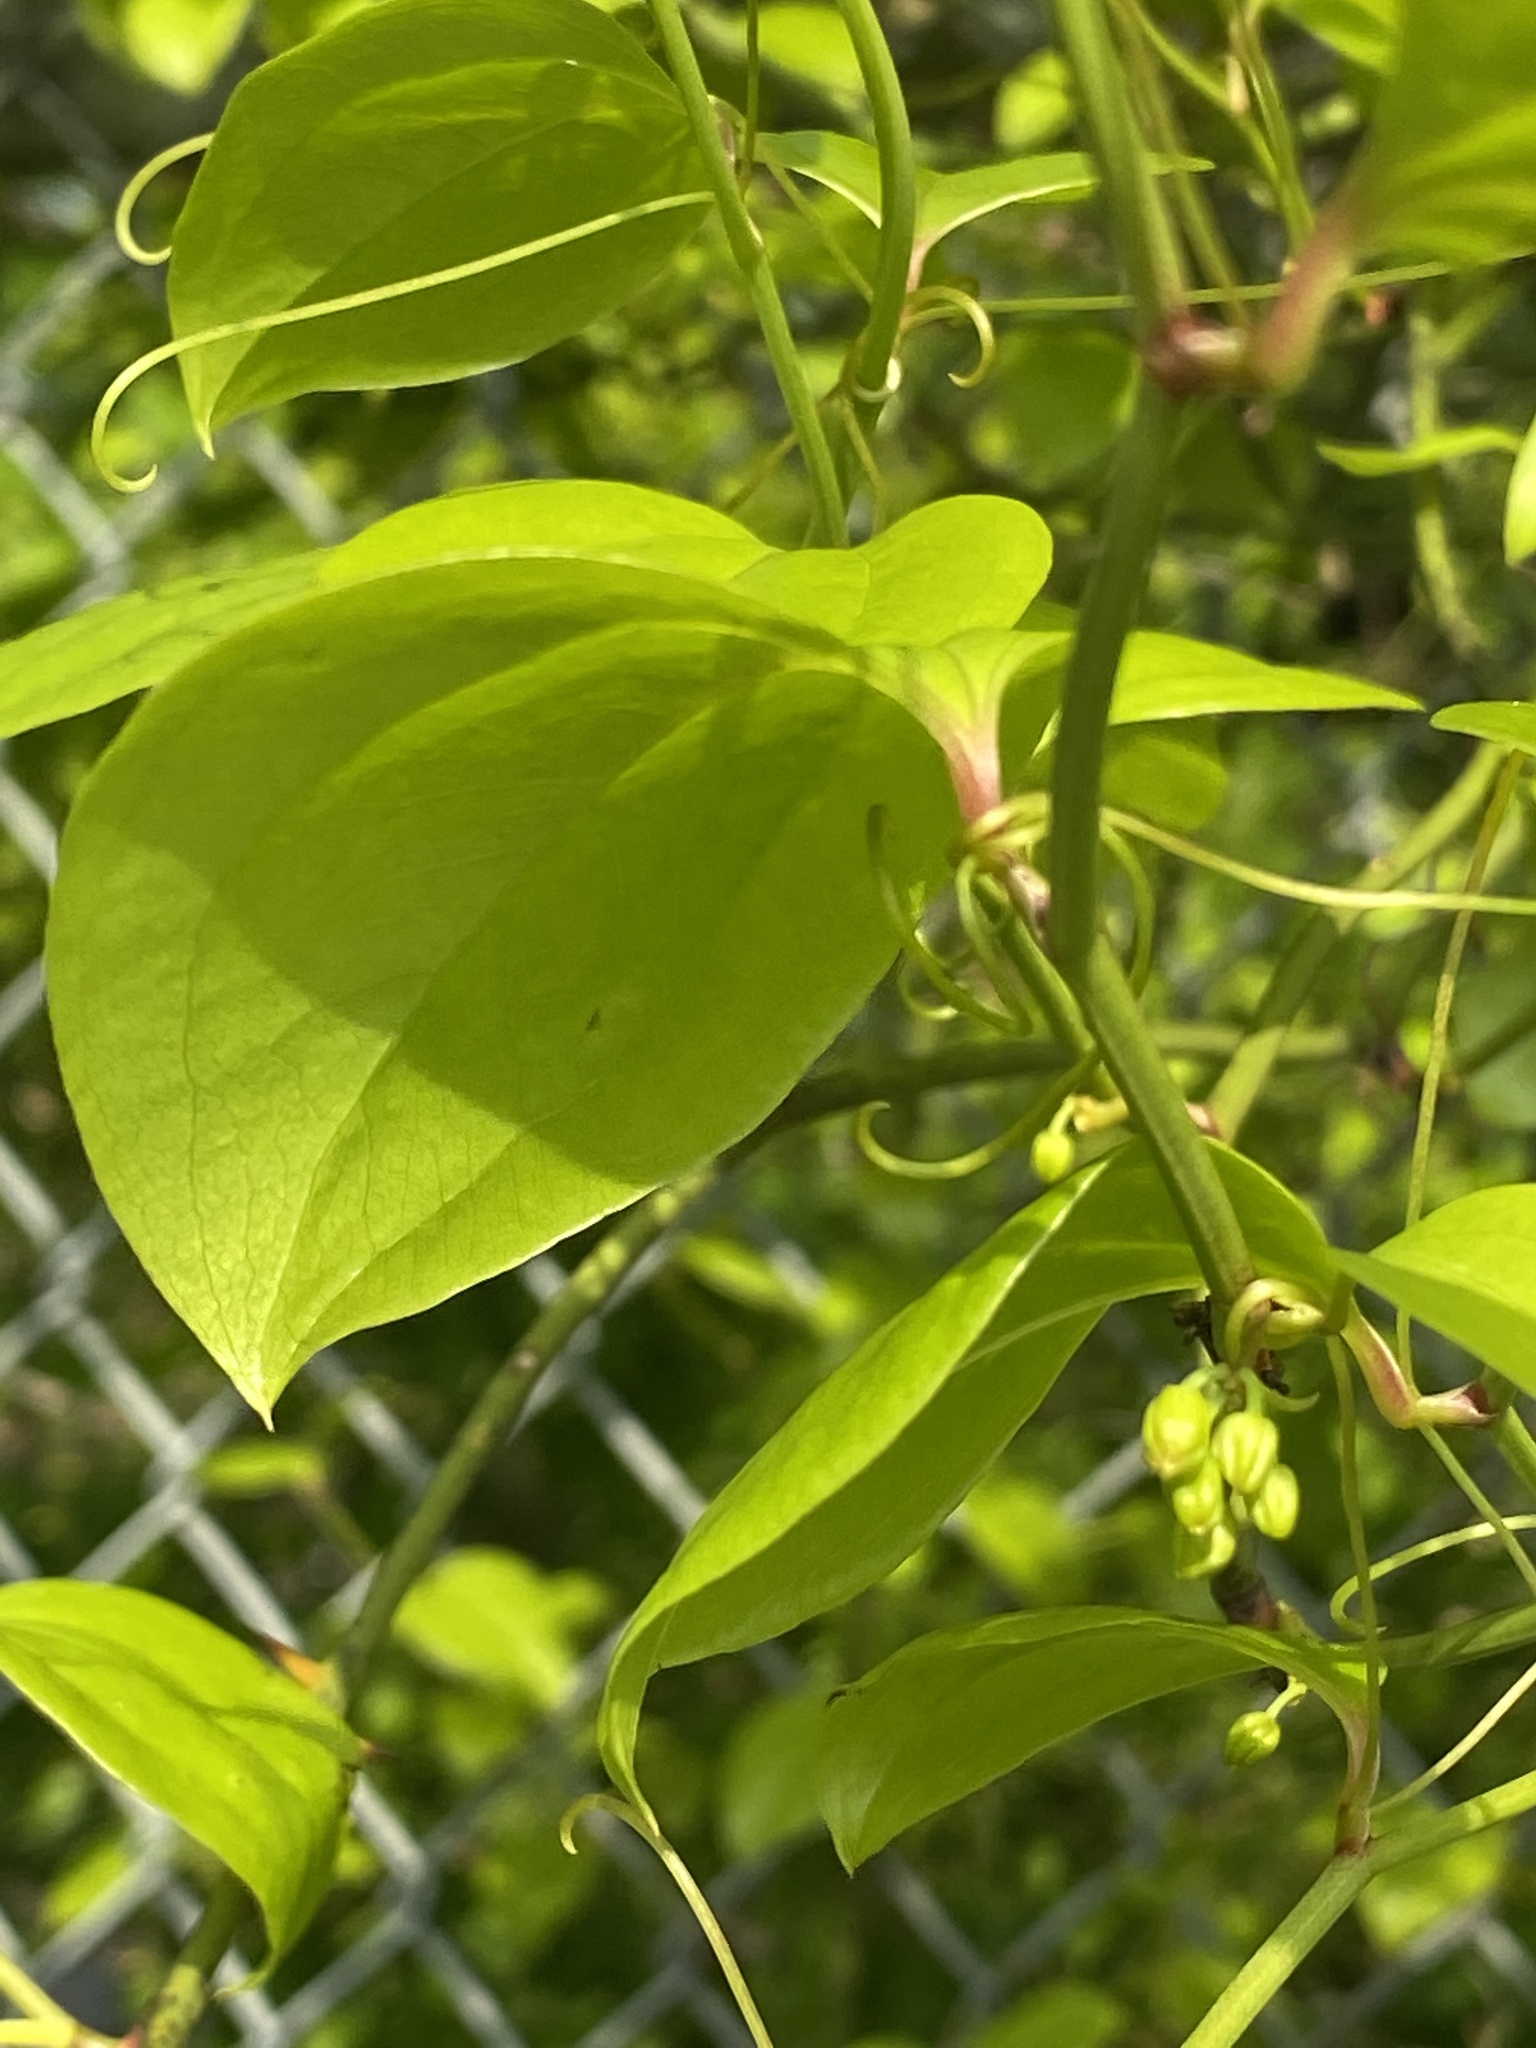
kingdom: Plantae
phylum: Tracheophyta
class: Liliopsida
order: Liliales
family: Smilacaceae
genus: Smilax
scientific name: Smilax rotundifolia
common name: Bullbriar
